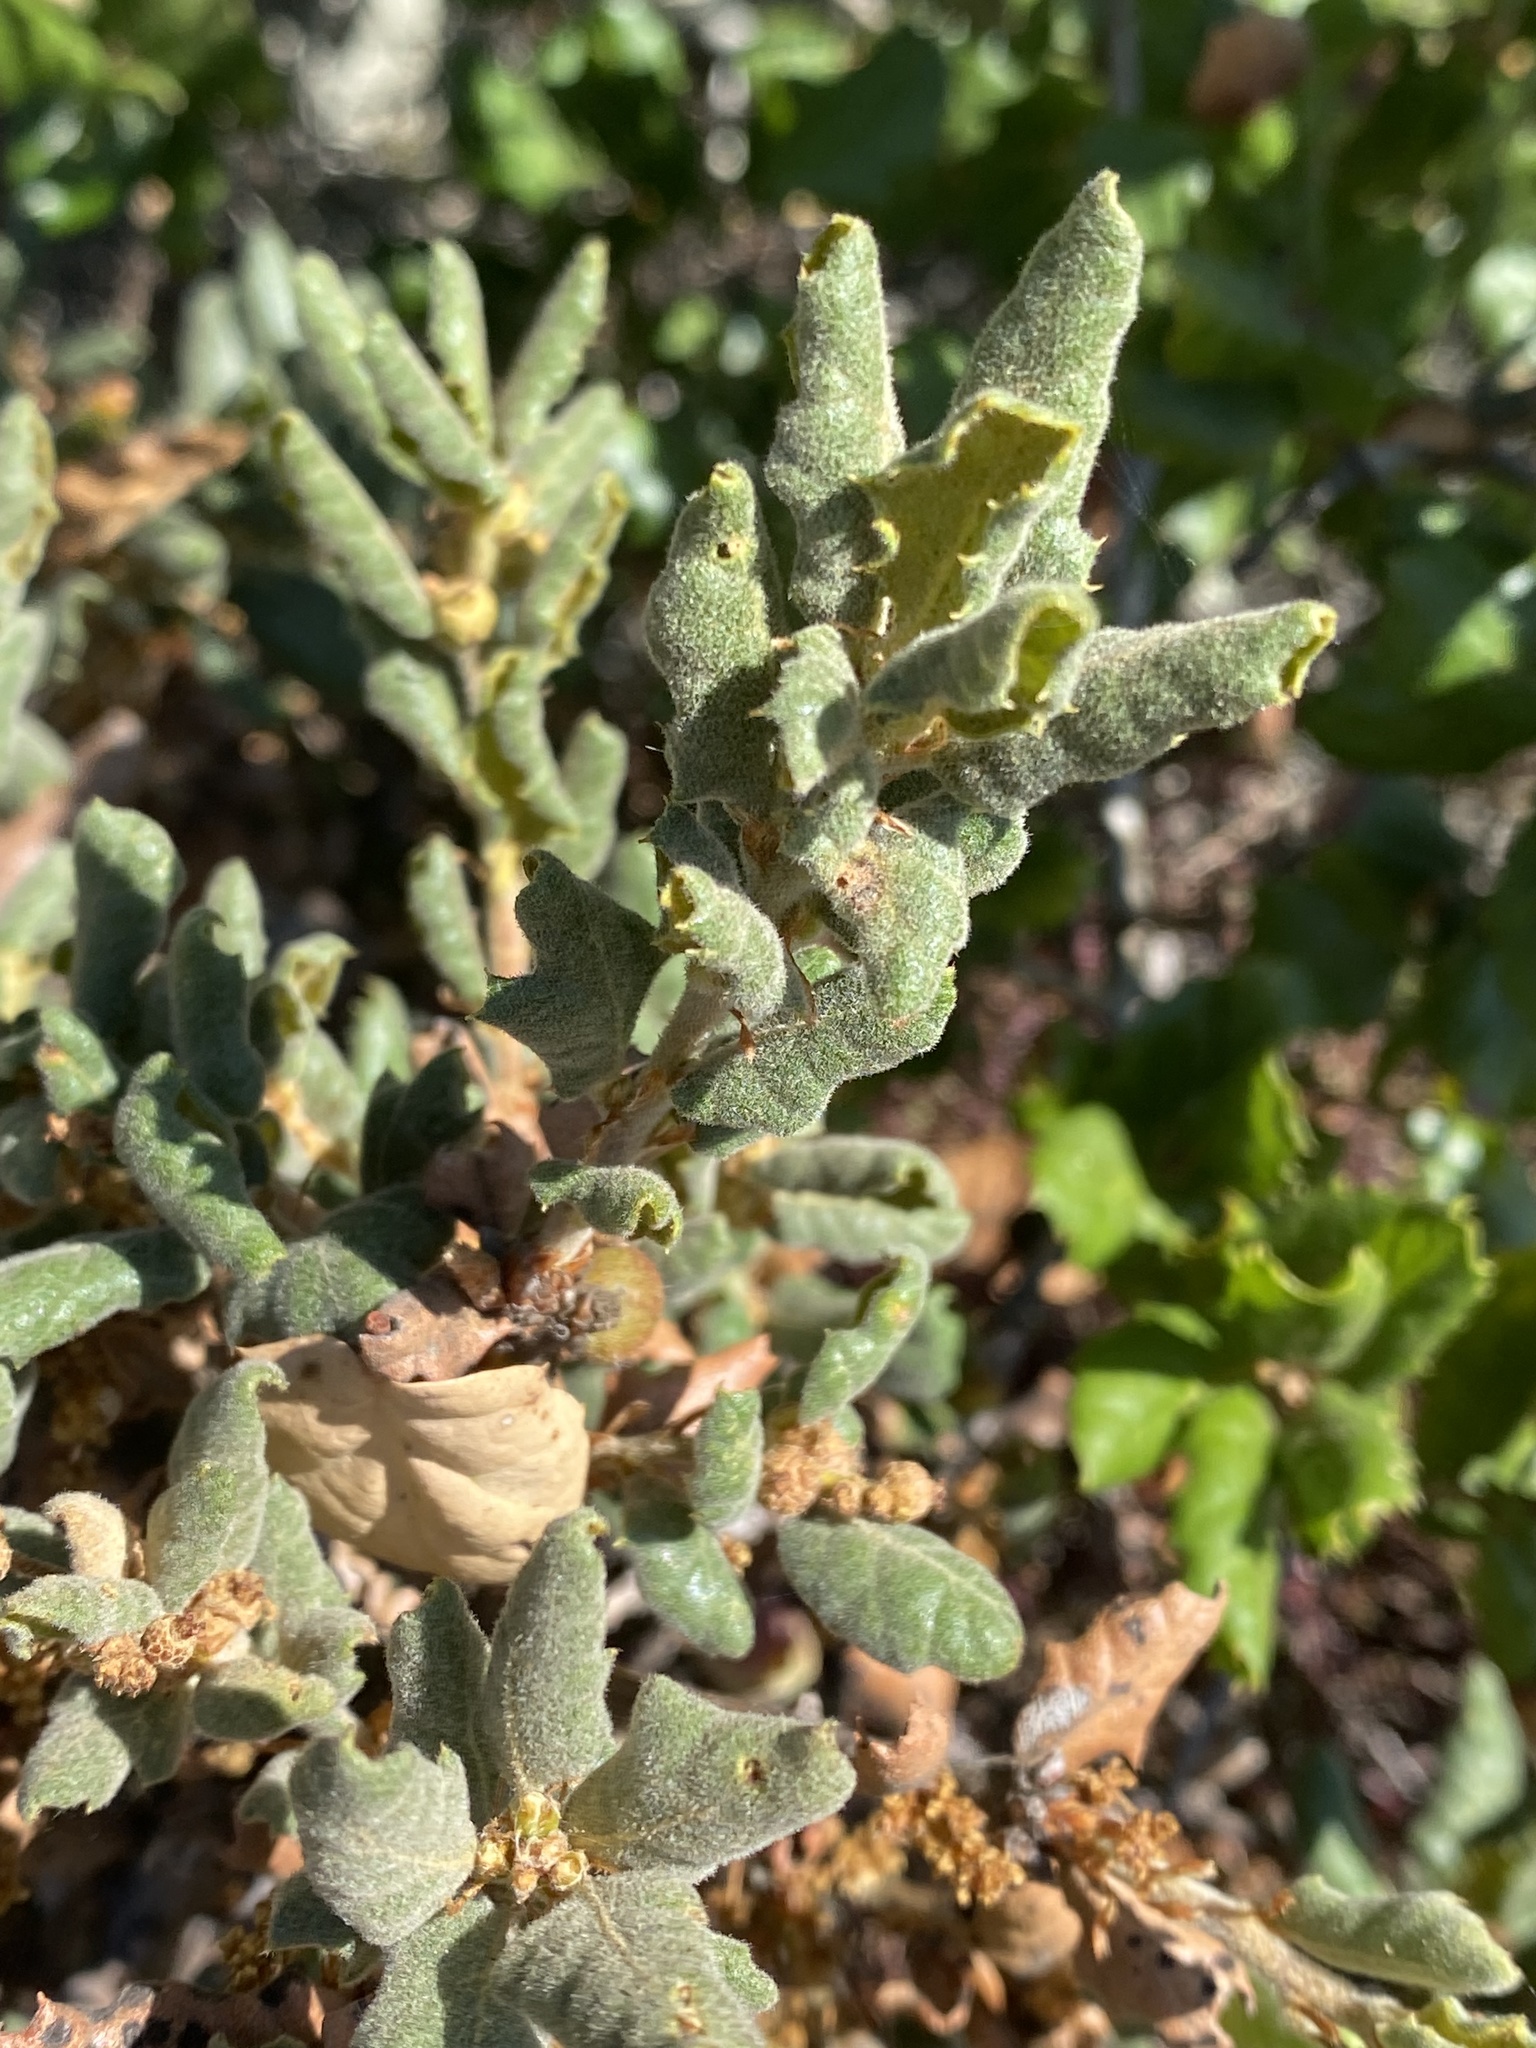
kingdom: Plantae
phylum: Tracheophyta
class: Magnoliopsida
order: Fagales
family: Fagaceae
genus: Quercus
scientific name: Quercus durata
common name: Leather oak
